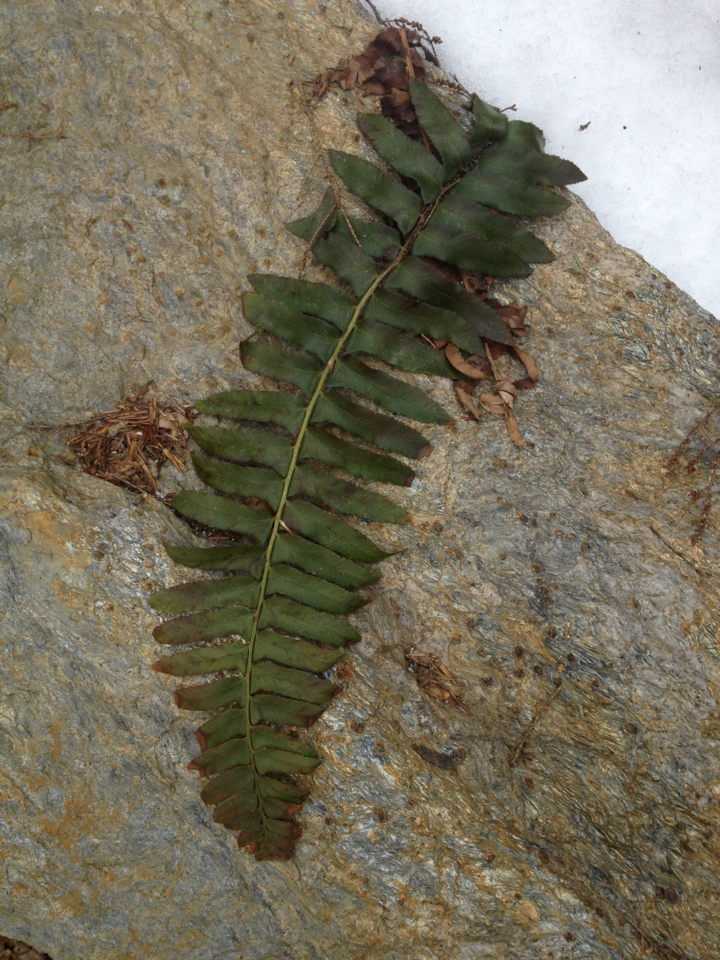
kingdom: Plantae
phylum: Tracheophyta
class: Polypodiopsida
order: Polypodiales
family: Dryopteridaceae
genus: Polystichum
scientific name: Polystichum acrostichoides
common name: Christmas fern
